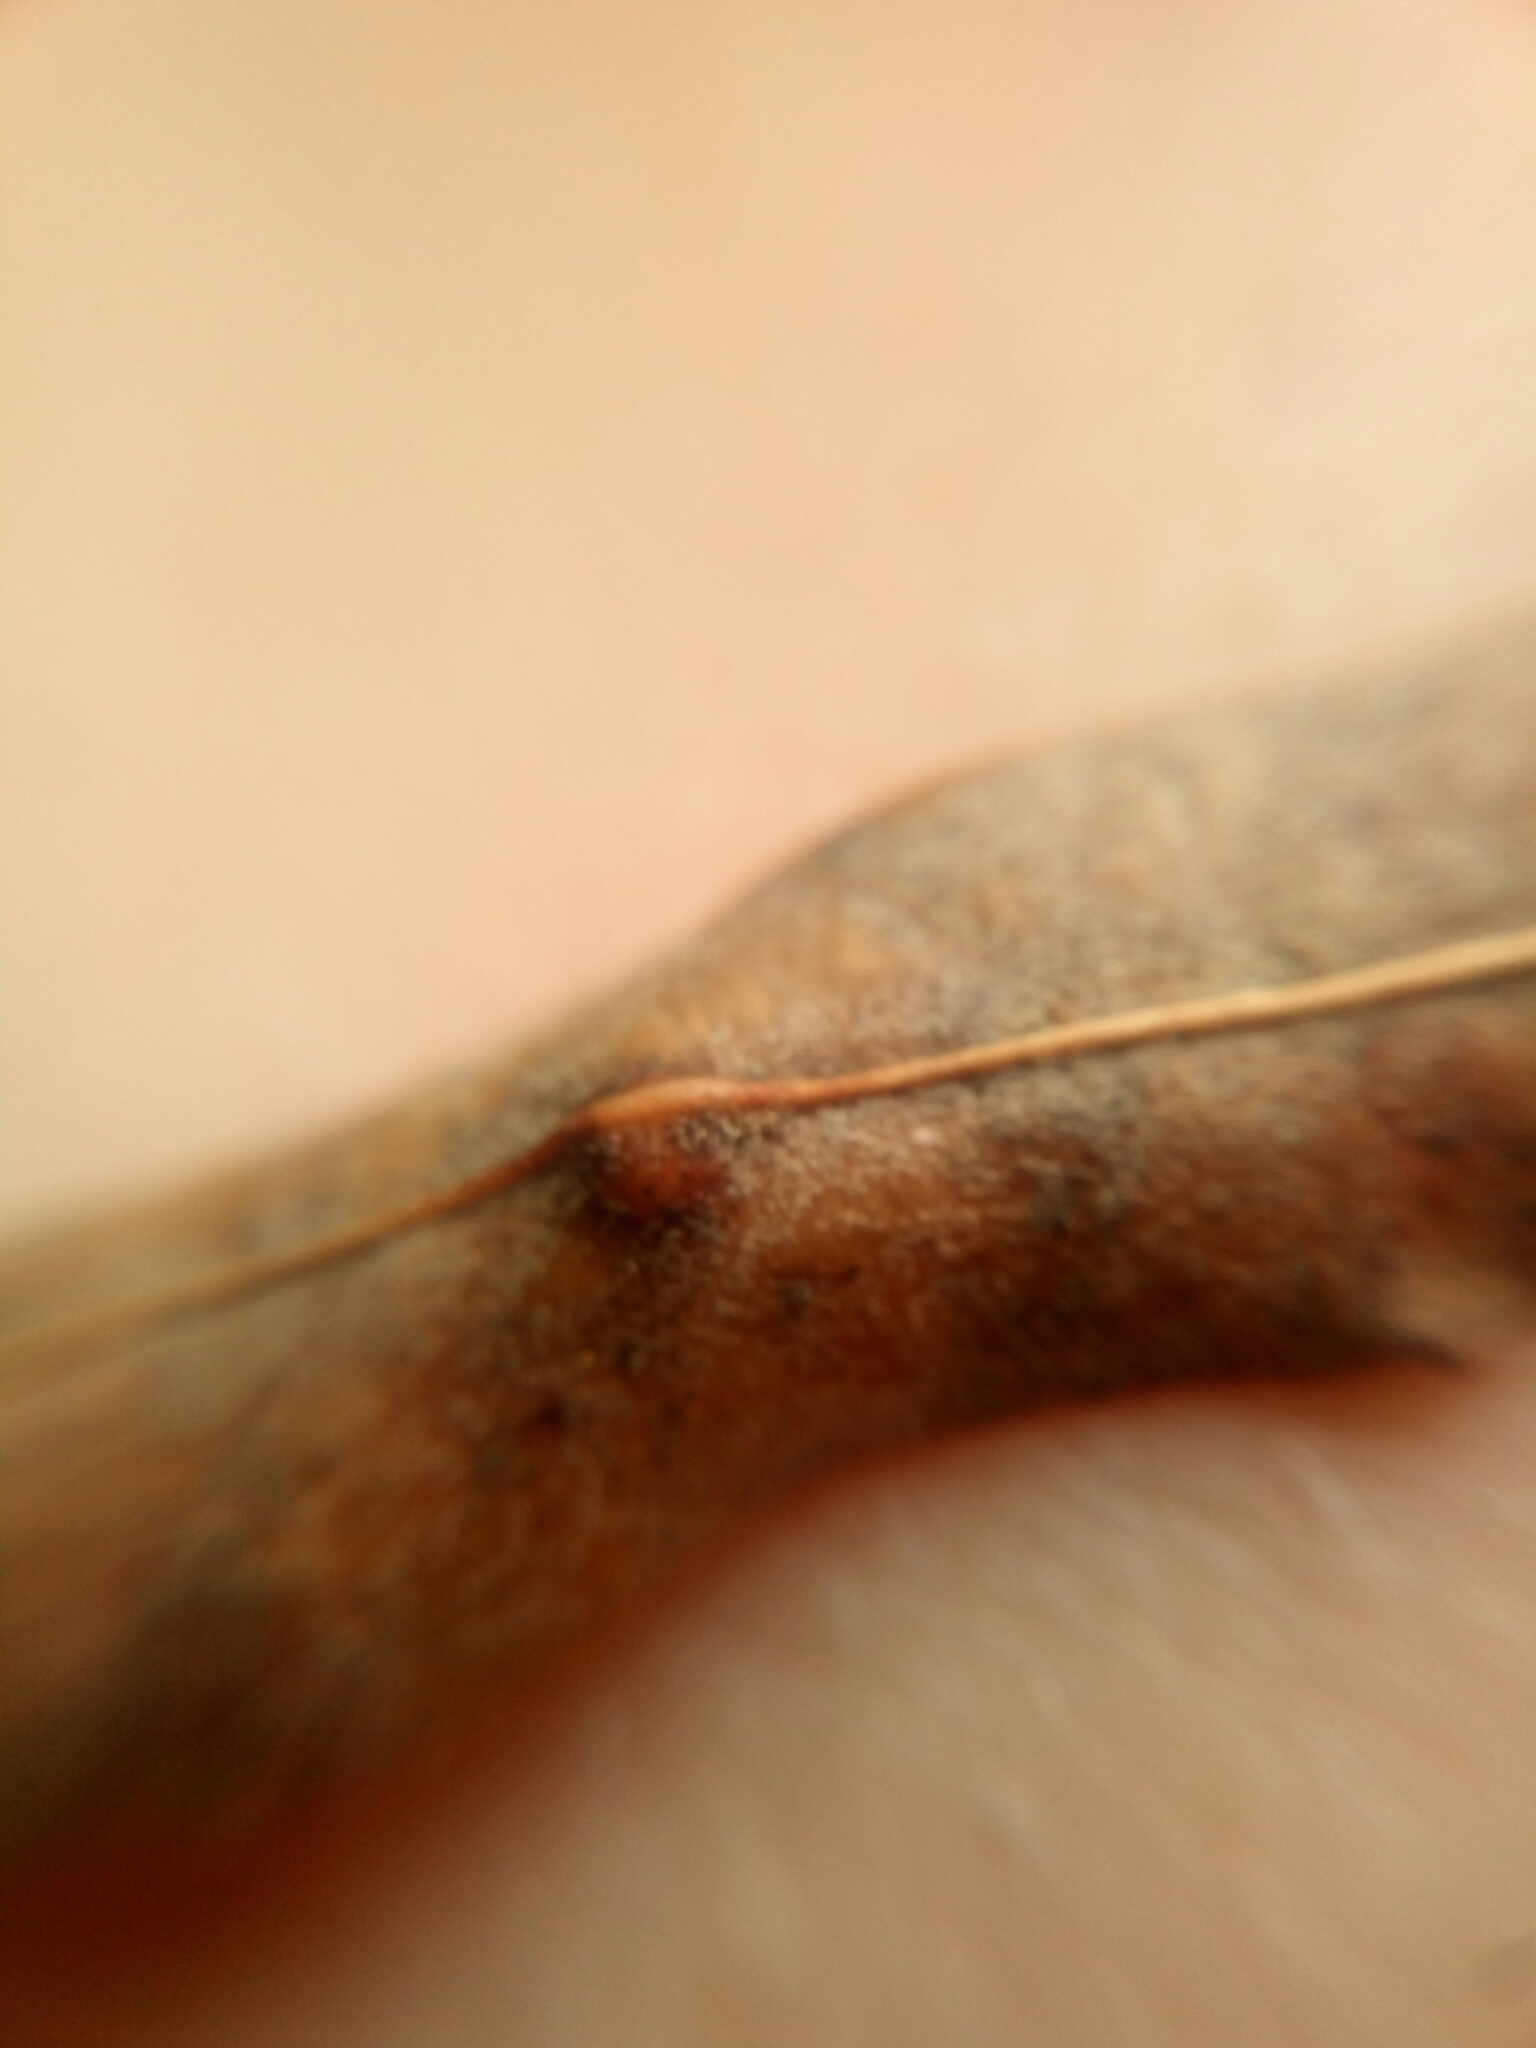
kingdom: Animalia
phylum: Arthropoda
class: Insecta
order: Diptera
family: Cecidomyiidae
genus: Polystepha
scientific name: Polystepha pilulae
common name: Oak leaf gall midge
